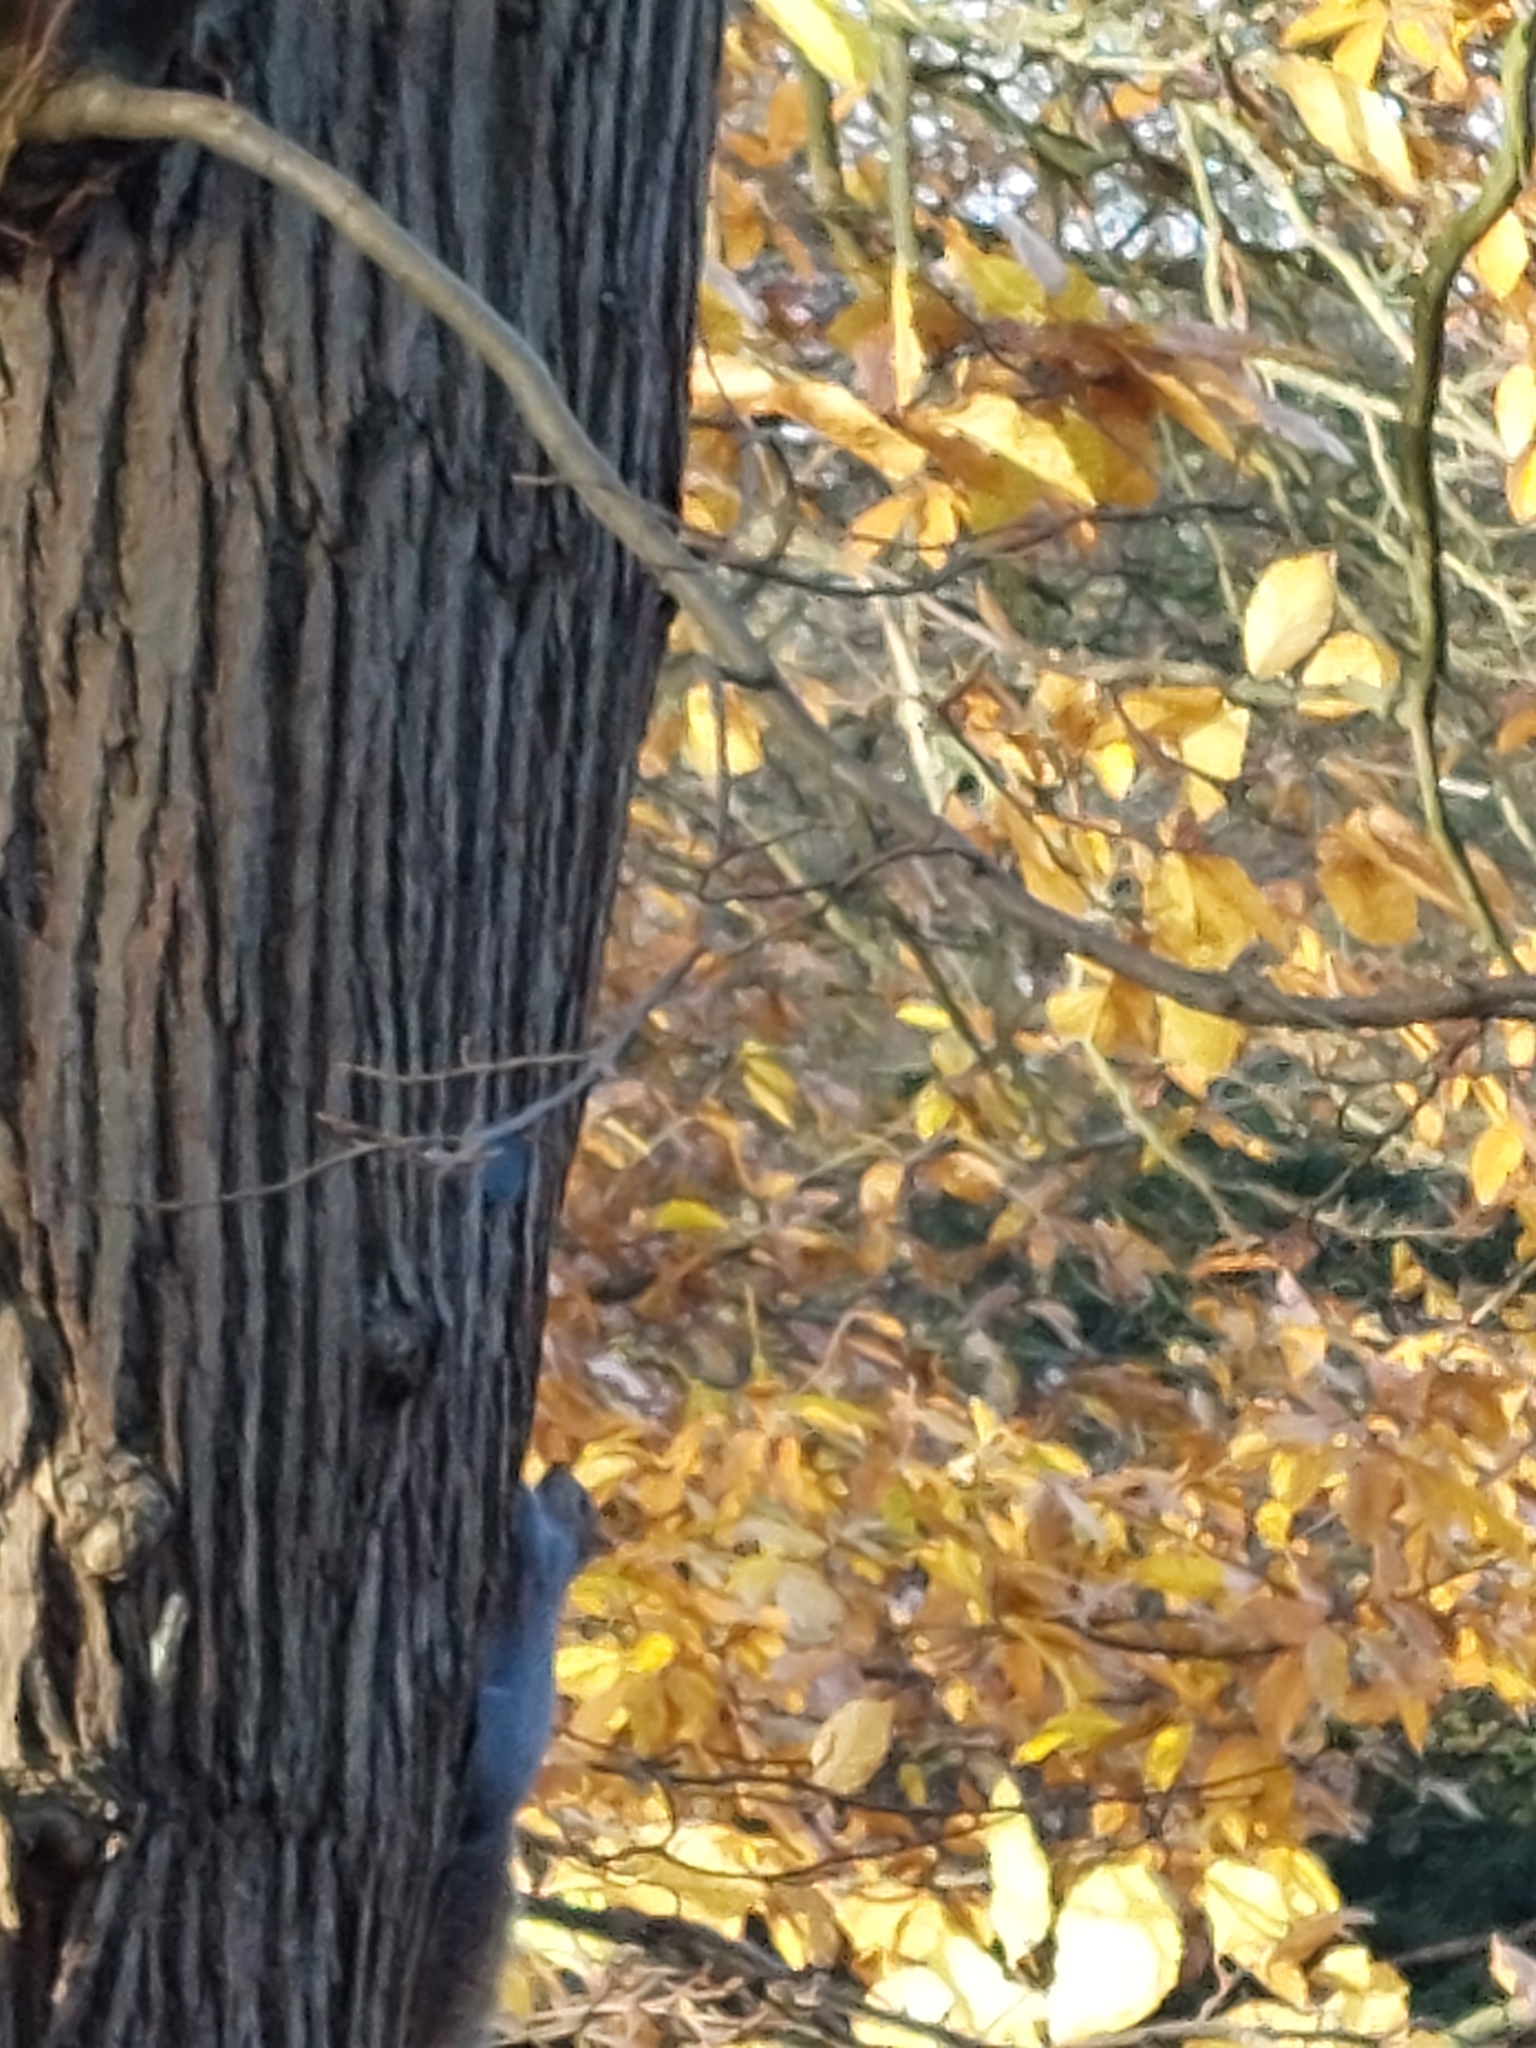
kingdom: Animalia
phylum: Chordata
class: Mammalia
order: Rodentia
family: Sciuridae
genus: Sciurus
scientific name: Sciurus carolinensis
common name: Eastern gray squirrel
